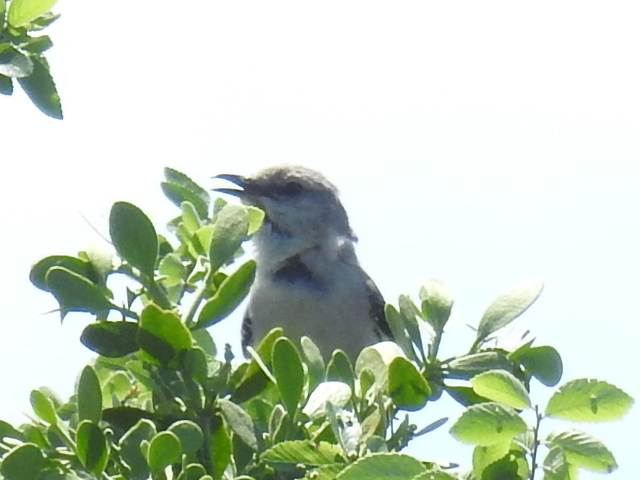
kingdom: Animalia
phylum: Chordata
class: Aves
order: Passeriformes
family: Mimidae
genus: Mimus
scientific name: Mimus polyglottos
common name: Northern mockingbird
